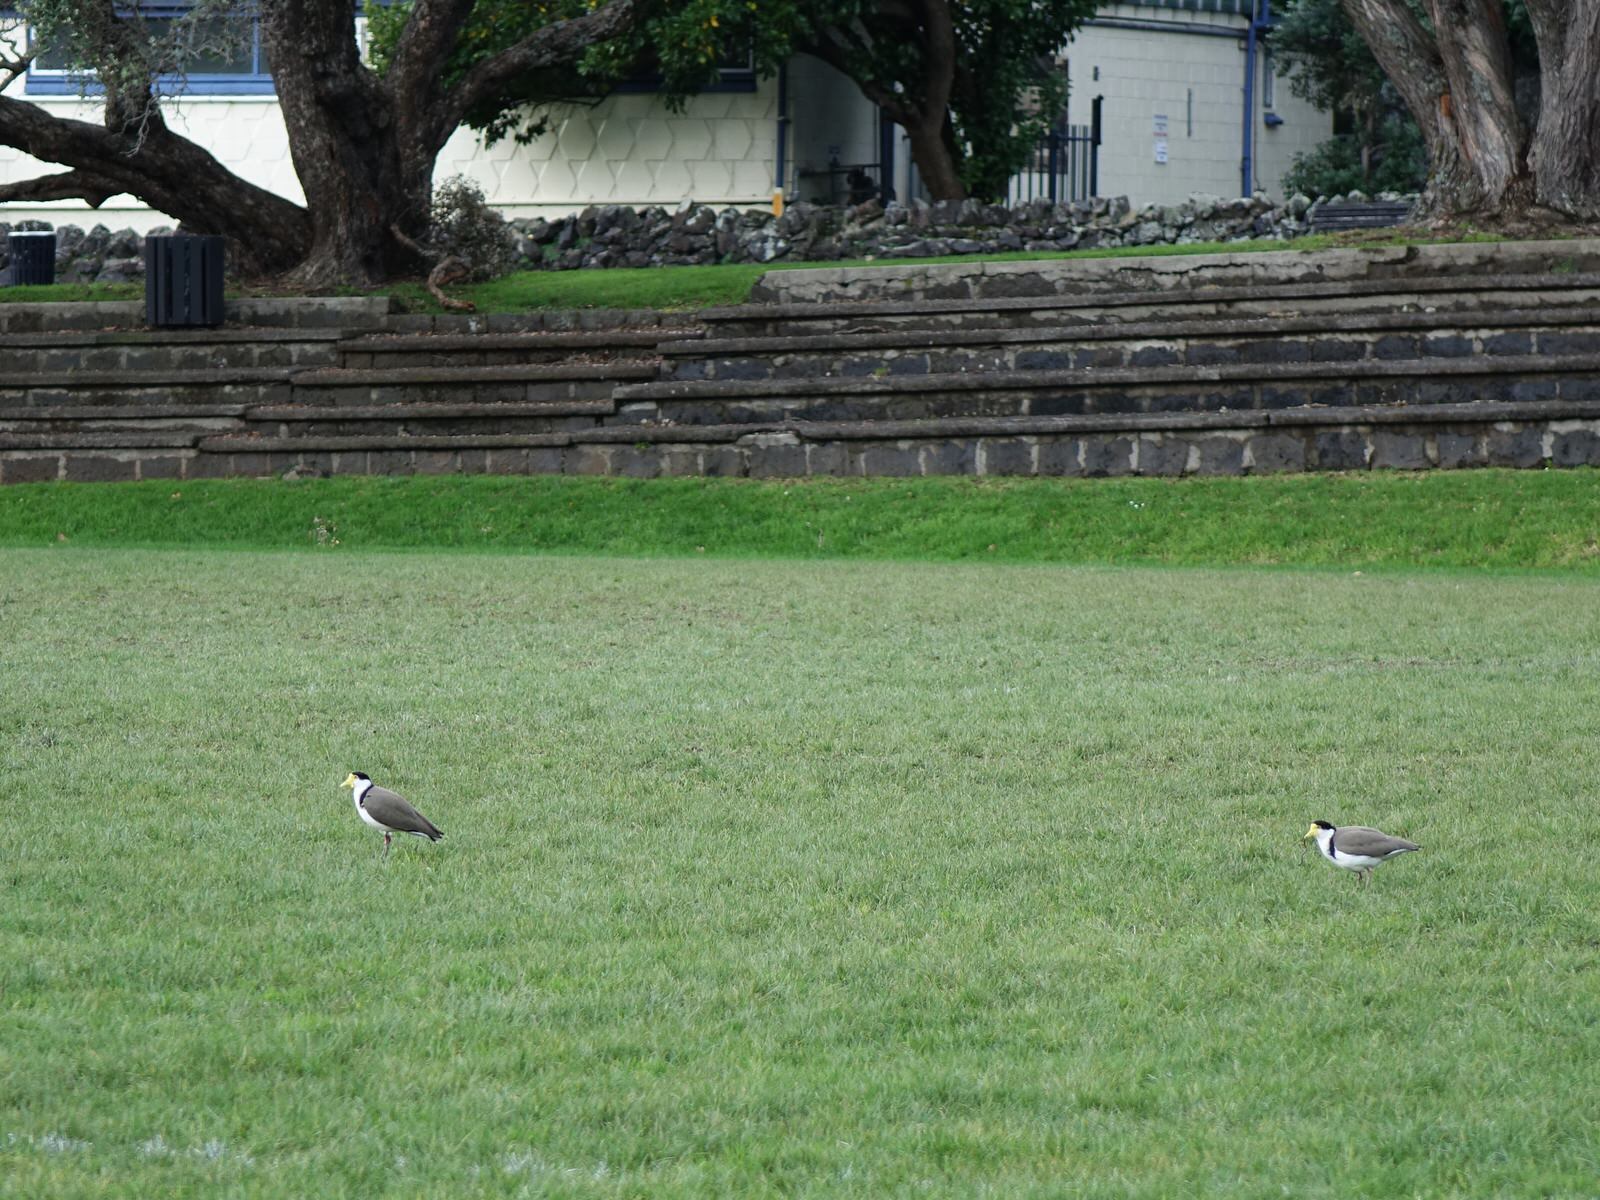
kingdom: Animalia
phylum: Chordata
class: Aves
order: Charadriiformes
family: Charadriidae
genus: Vanellus
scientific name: Vanellus miles
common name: Masked lapwing
